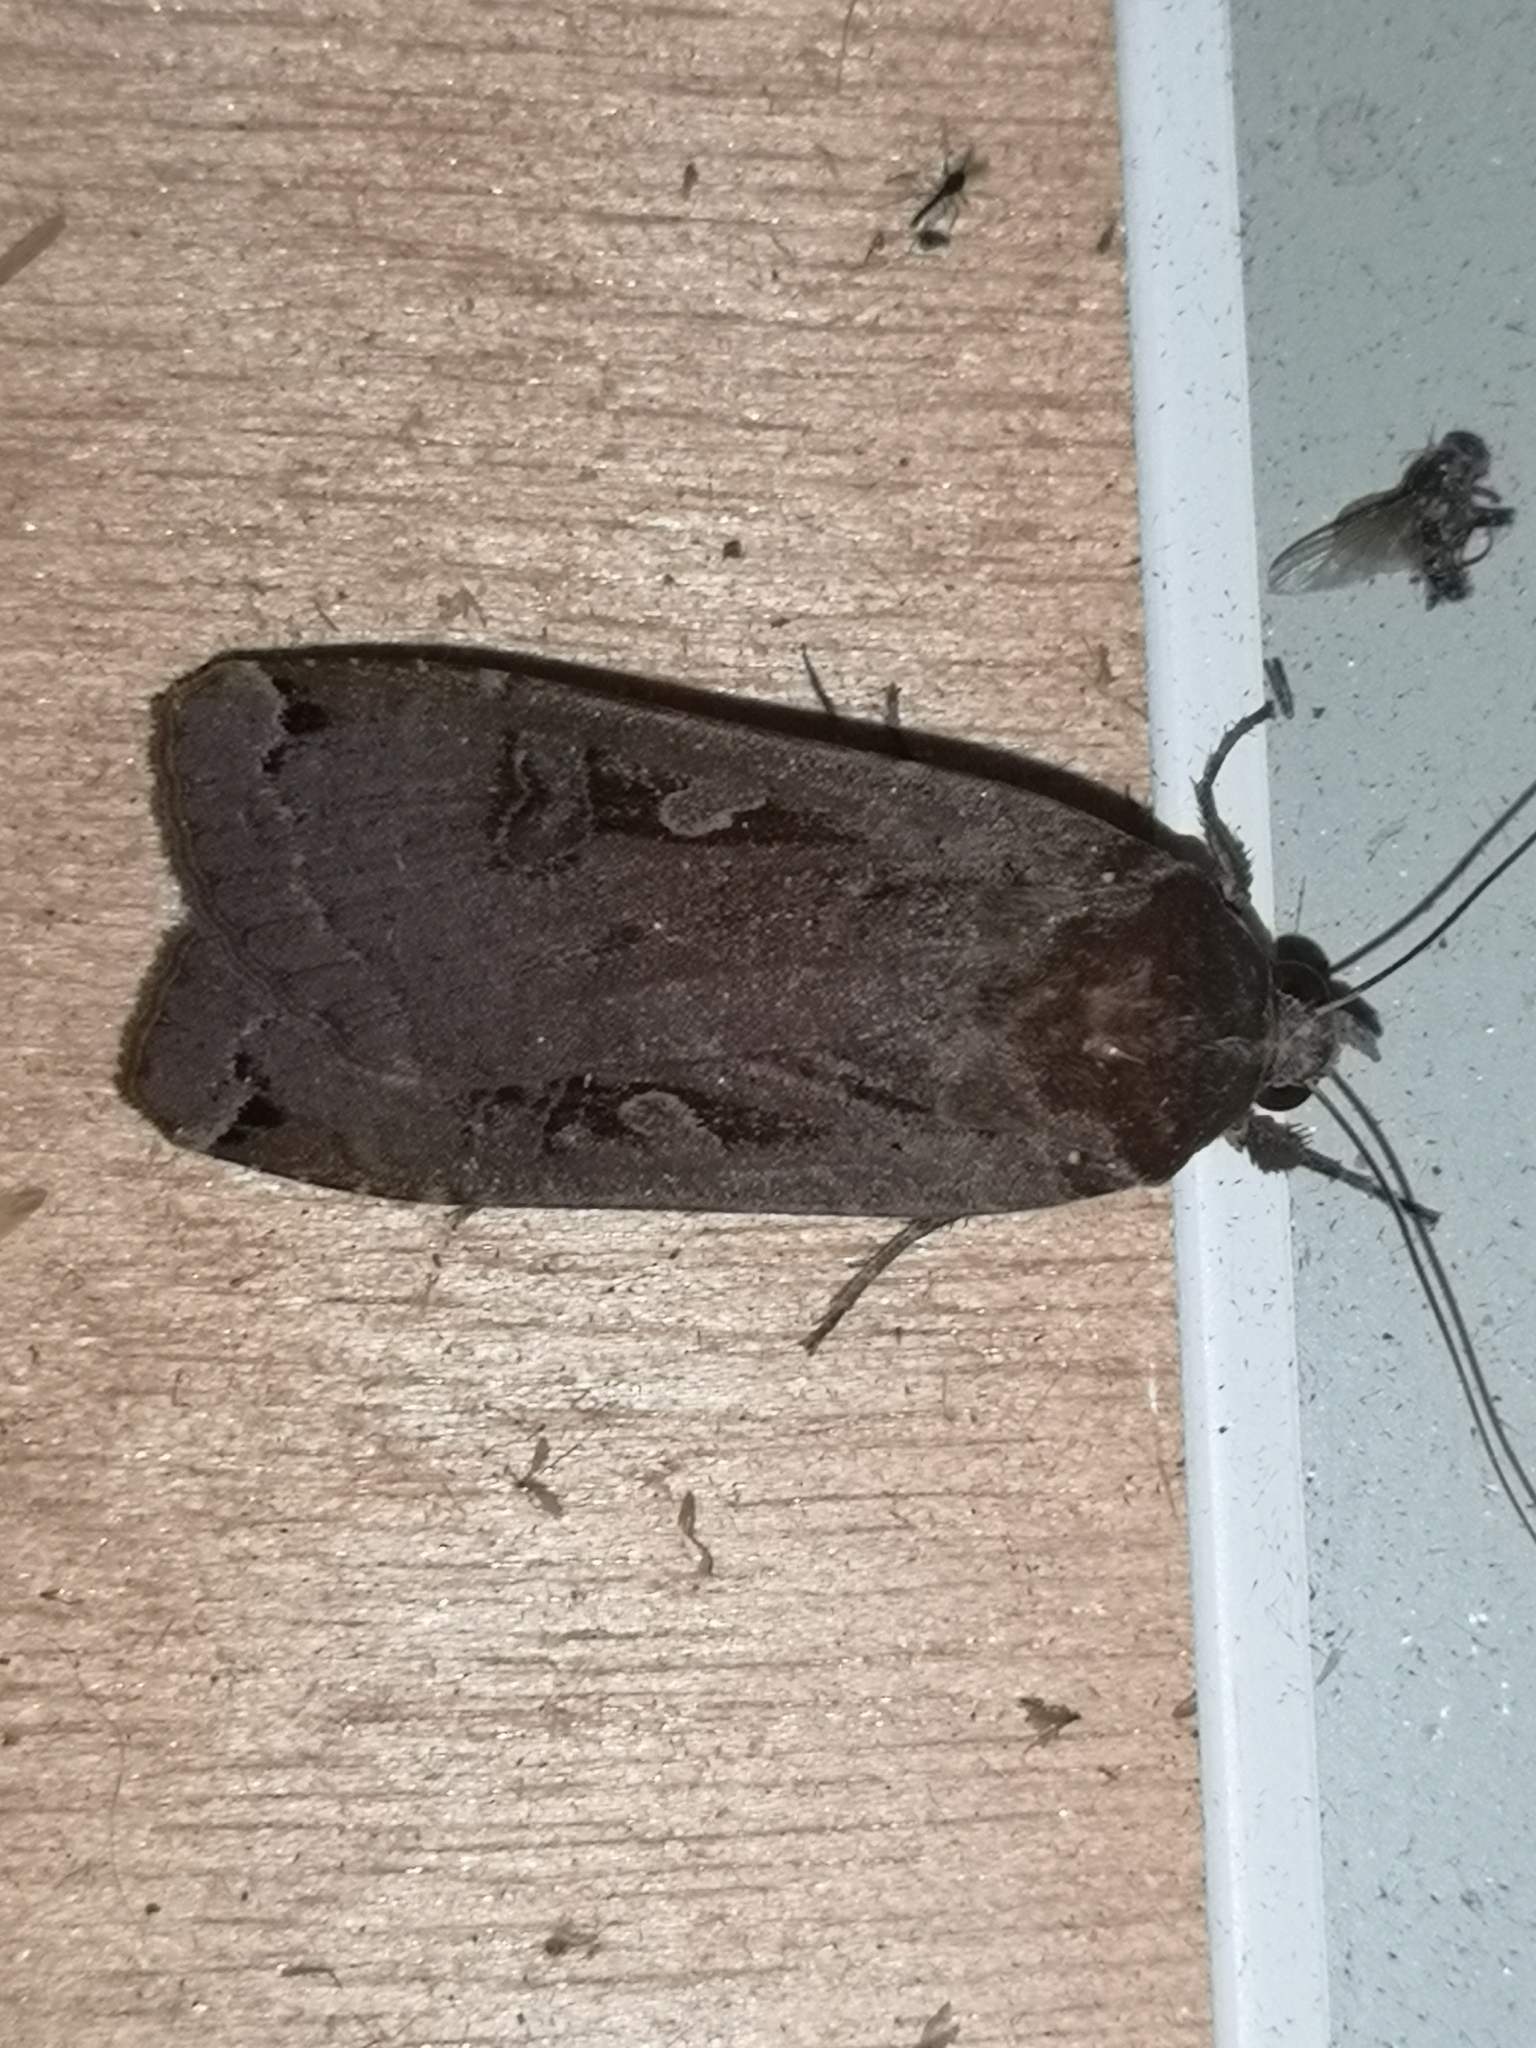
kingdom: Animalia
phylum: Arthropoda
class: Insecta
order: Lepidoptera
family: Noctuidae
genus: Noctua
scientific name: Noctua pronuba
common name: Large yellow underwing
